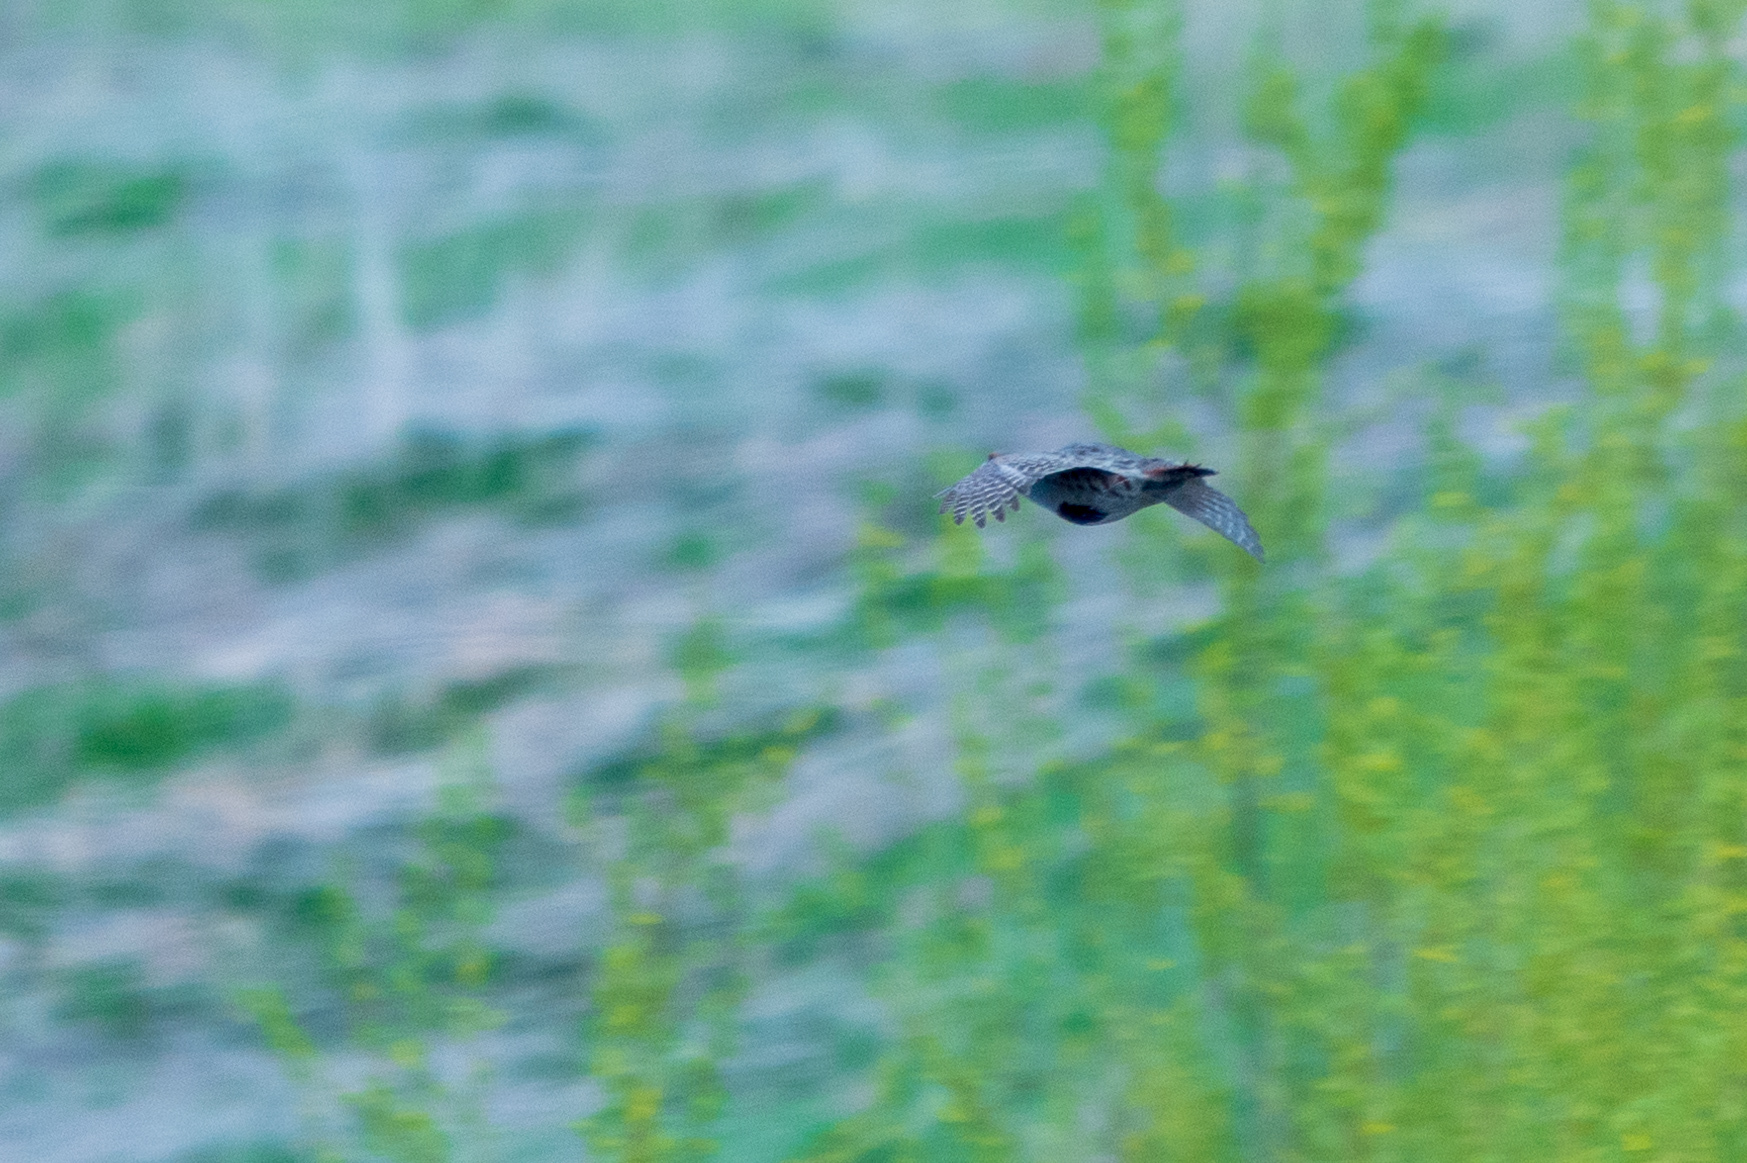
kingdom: Animalia
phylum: Chordata
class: Aves
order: Galliformes
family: Phasianidae
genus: Perdix
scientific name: Perdix perdix
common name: Grey partridge
